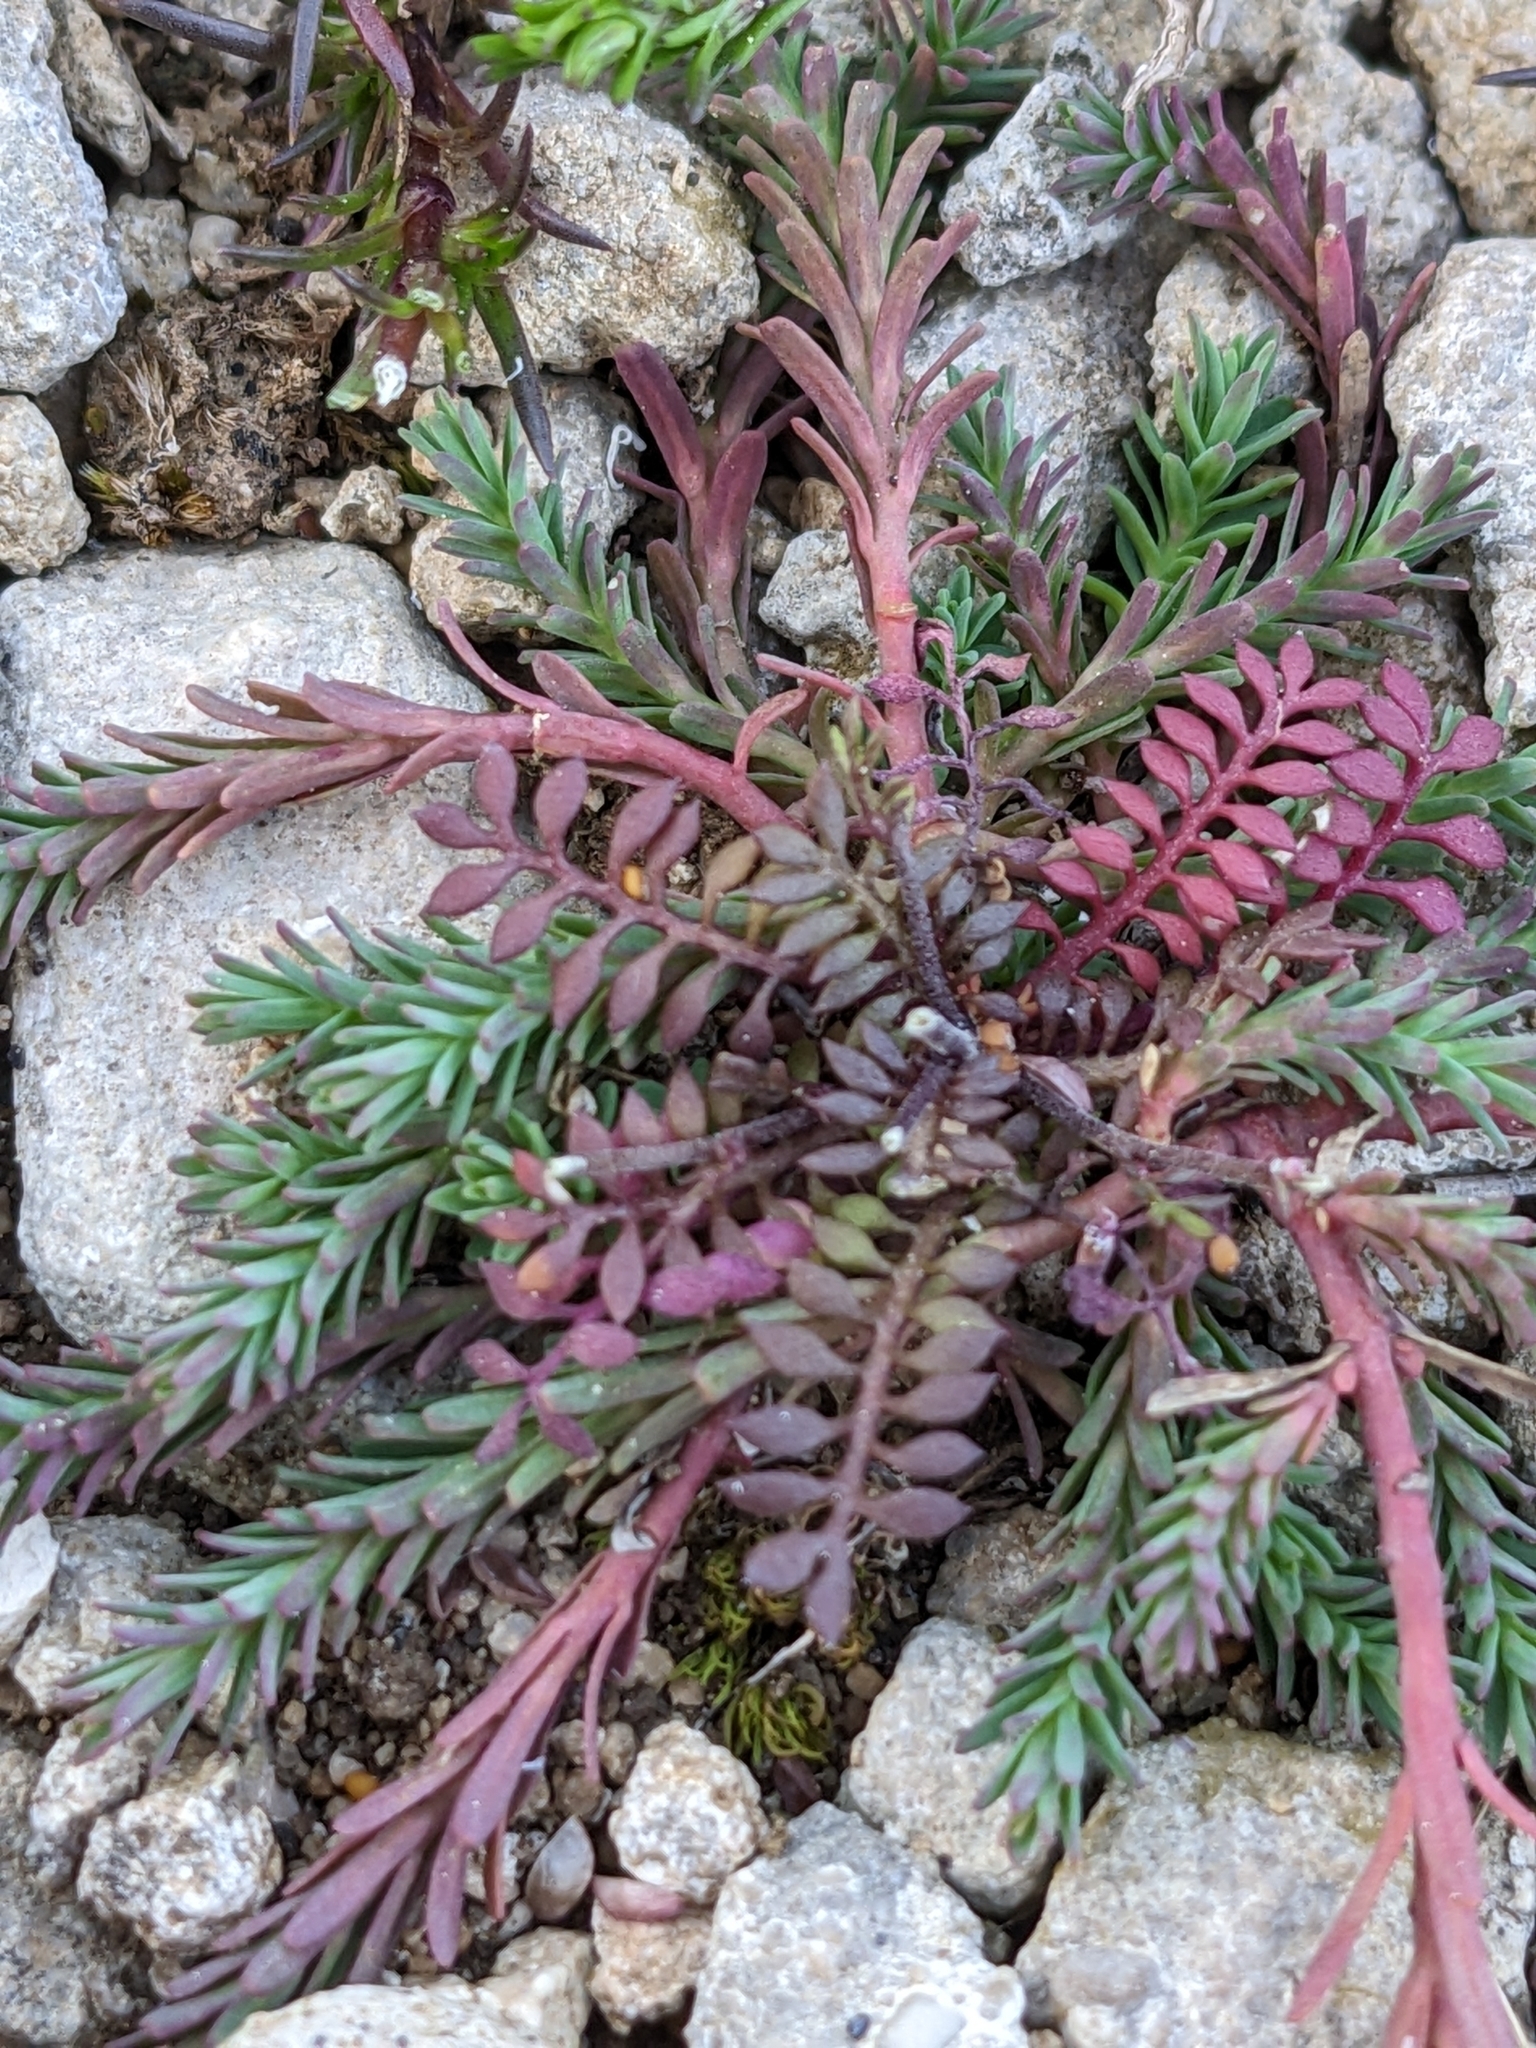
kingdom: Plantae
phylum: Tracheophyta
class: Magnoliopsida
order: Brassicales
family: Brassicaceae
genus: Hornungia
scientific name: Hornungia petraea
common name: Hutchinsia
